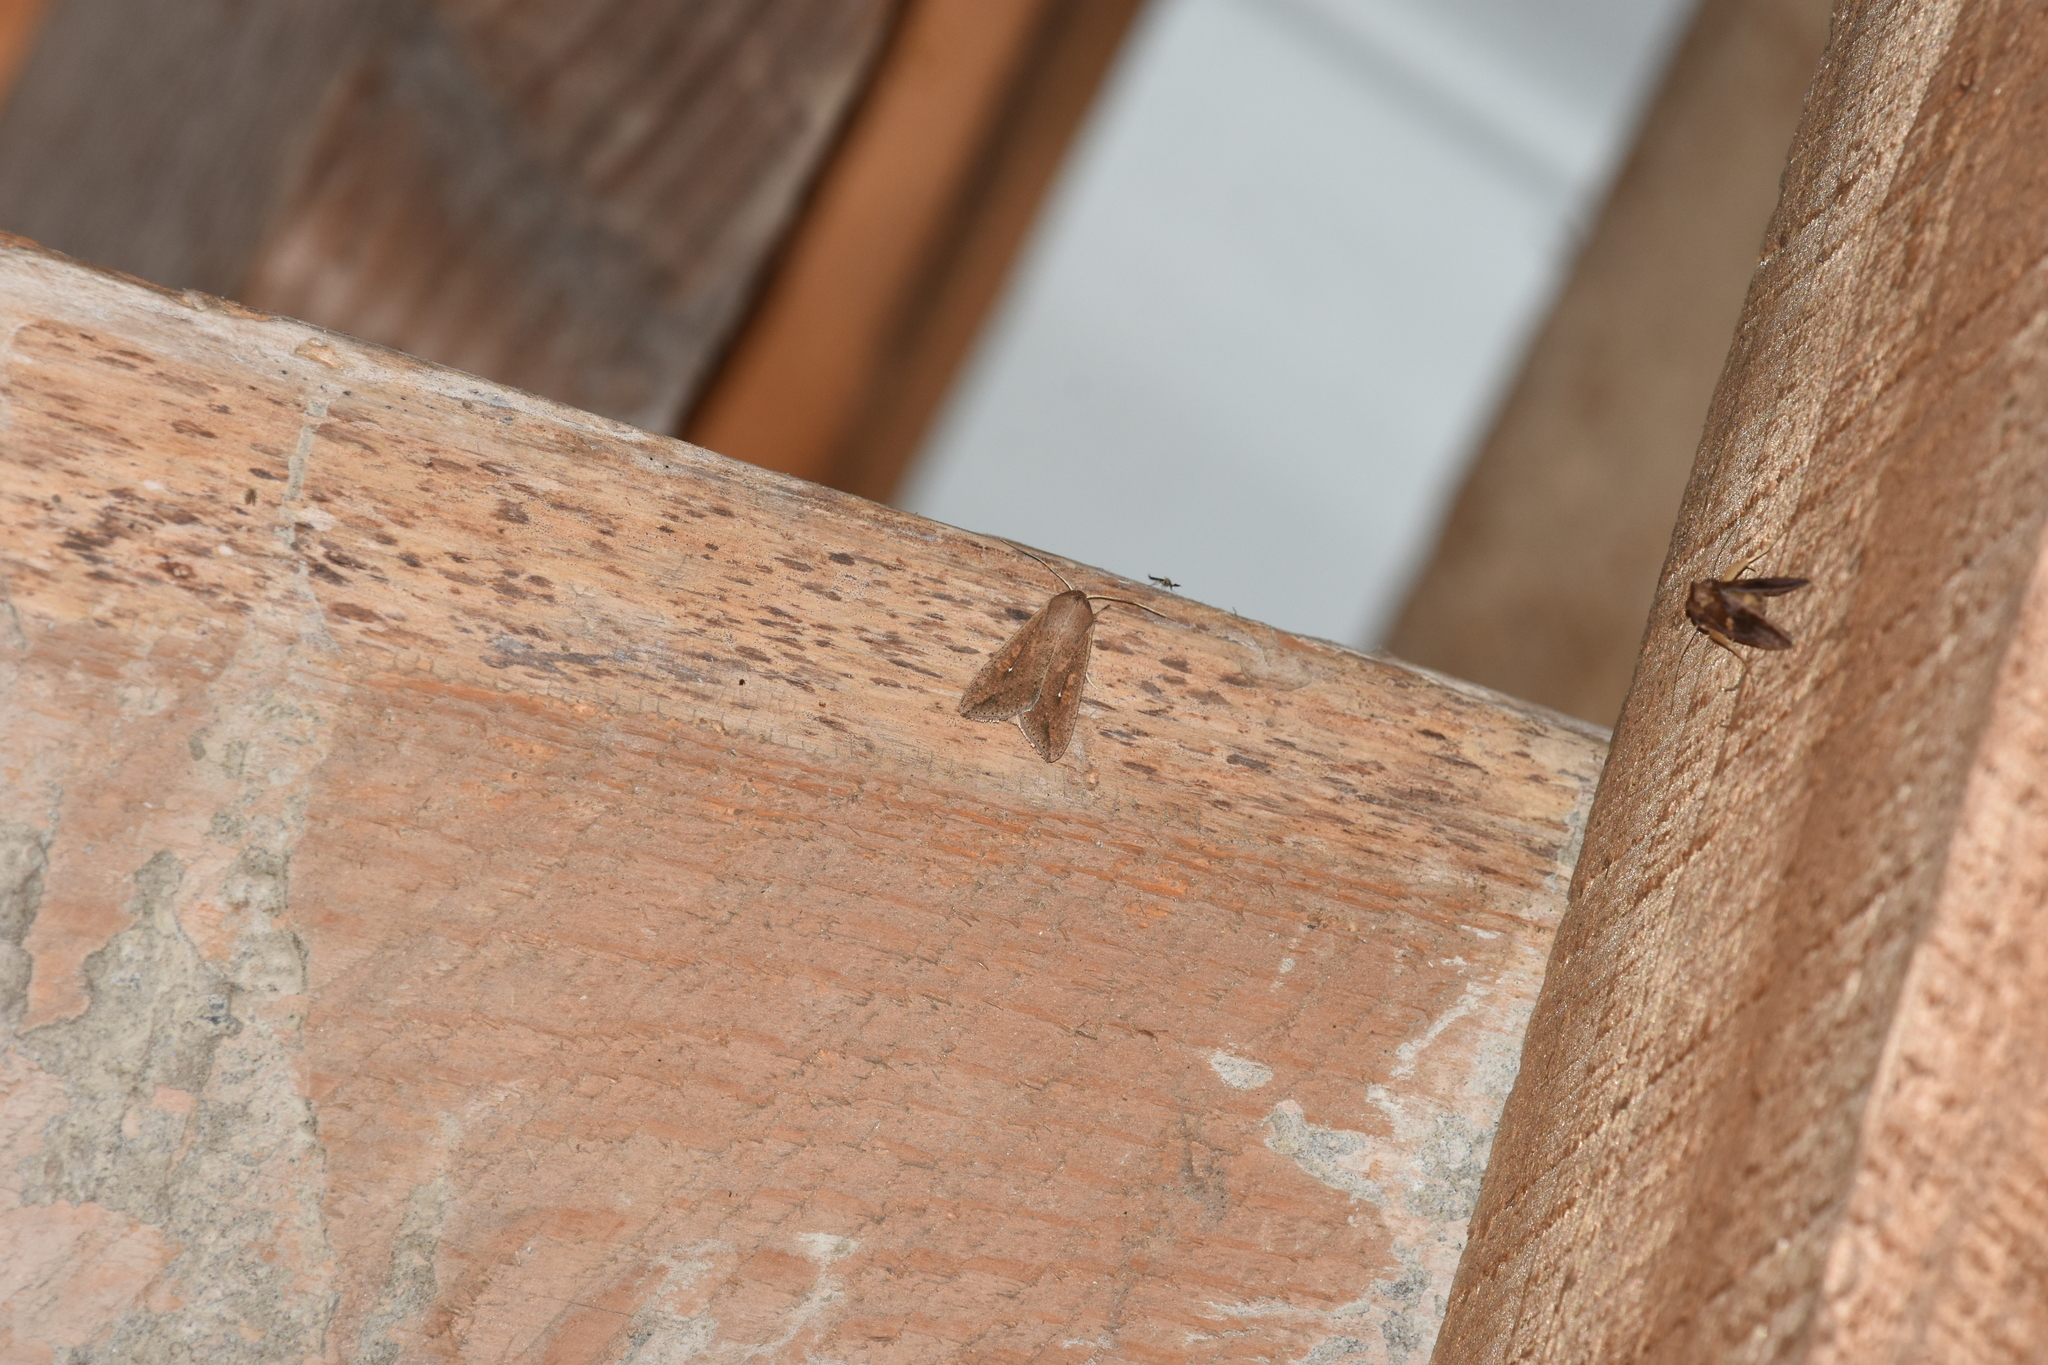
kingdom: Animalia
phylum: Arthropoda
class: Insecta
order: Lepidoptera
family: Noctuidae
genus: Mythimna
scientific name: Mythimna unipuncta
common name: White-speck
